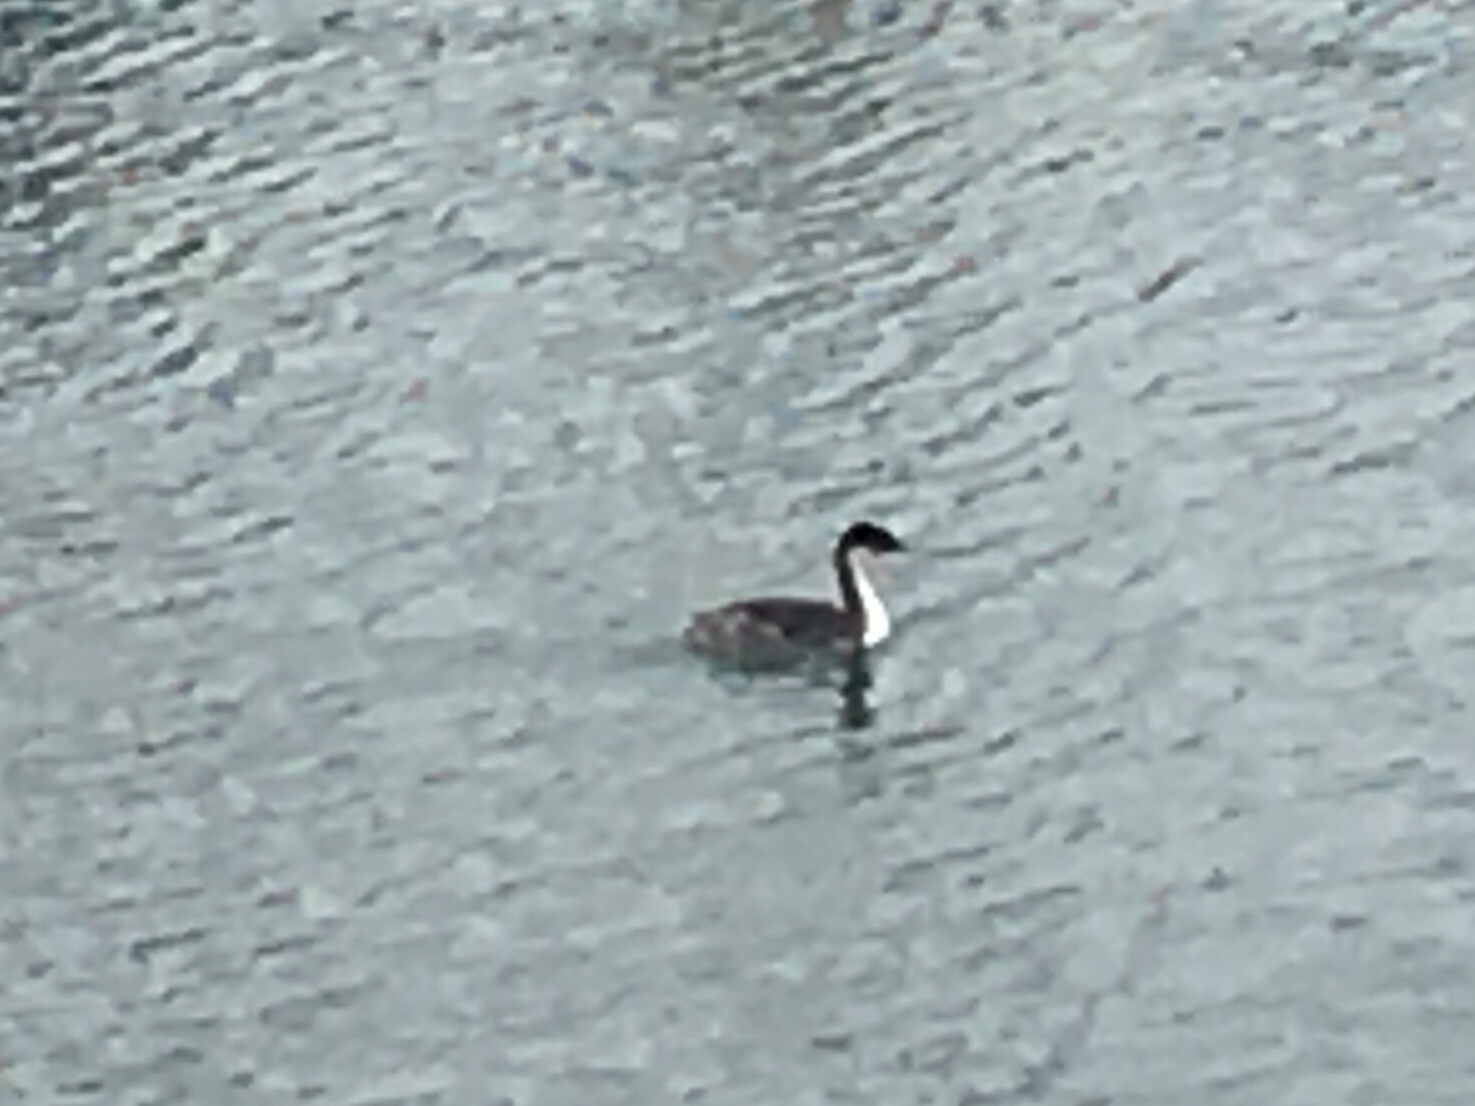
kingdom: Animalia
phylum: Chordata
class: Aves
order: Podicipediformes
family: Podicipedidae
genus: Aechmophorus
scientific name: Aechmophorus
